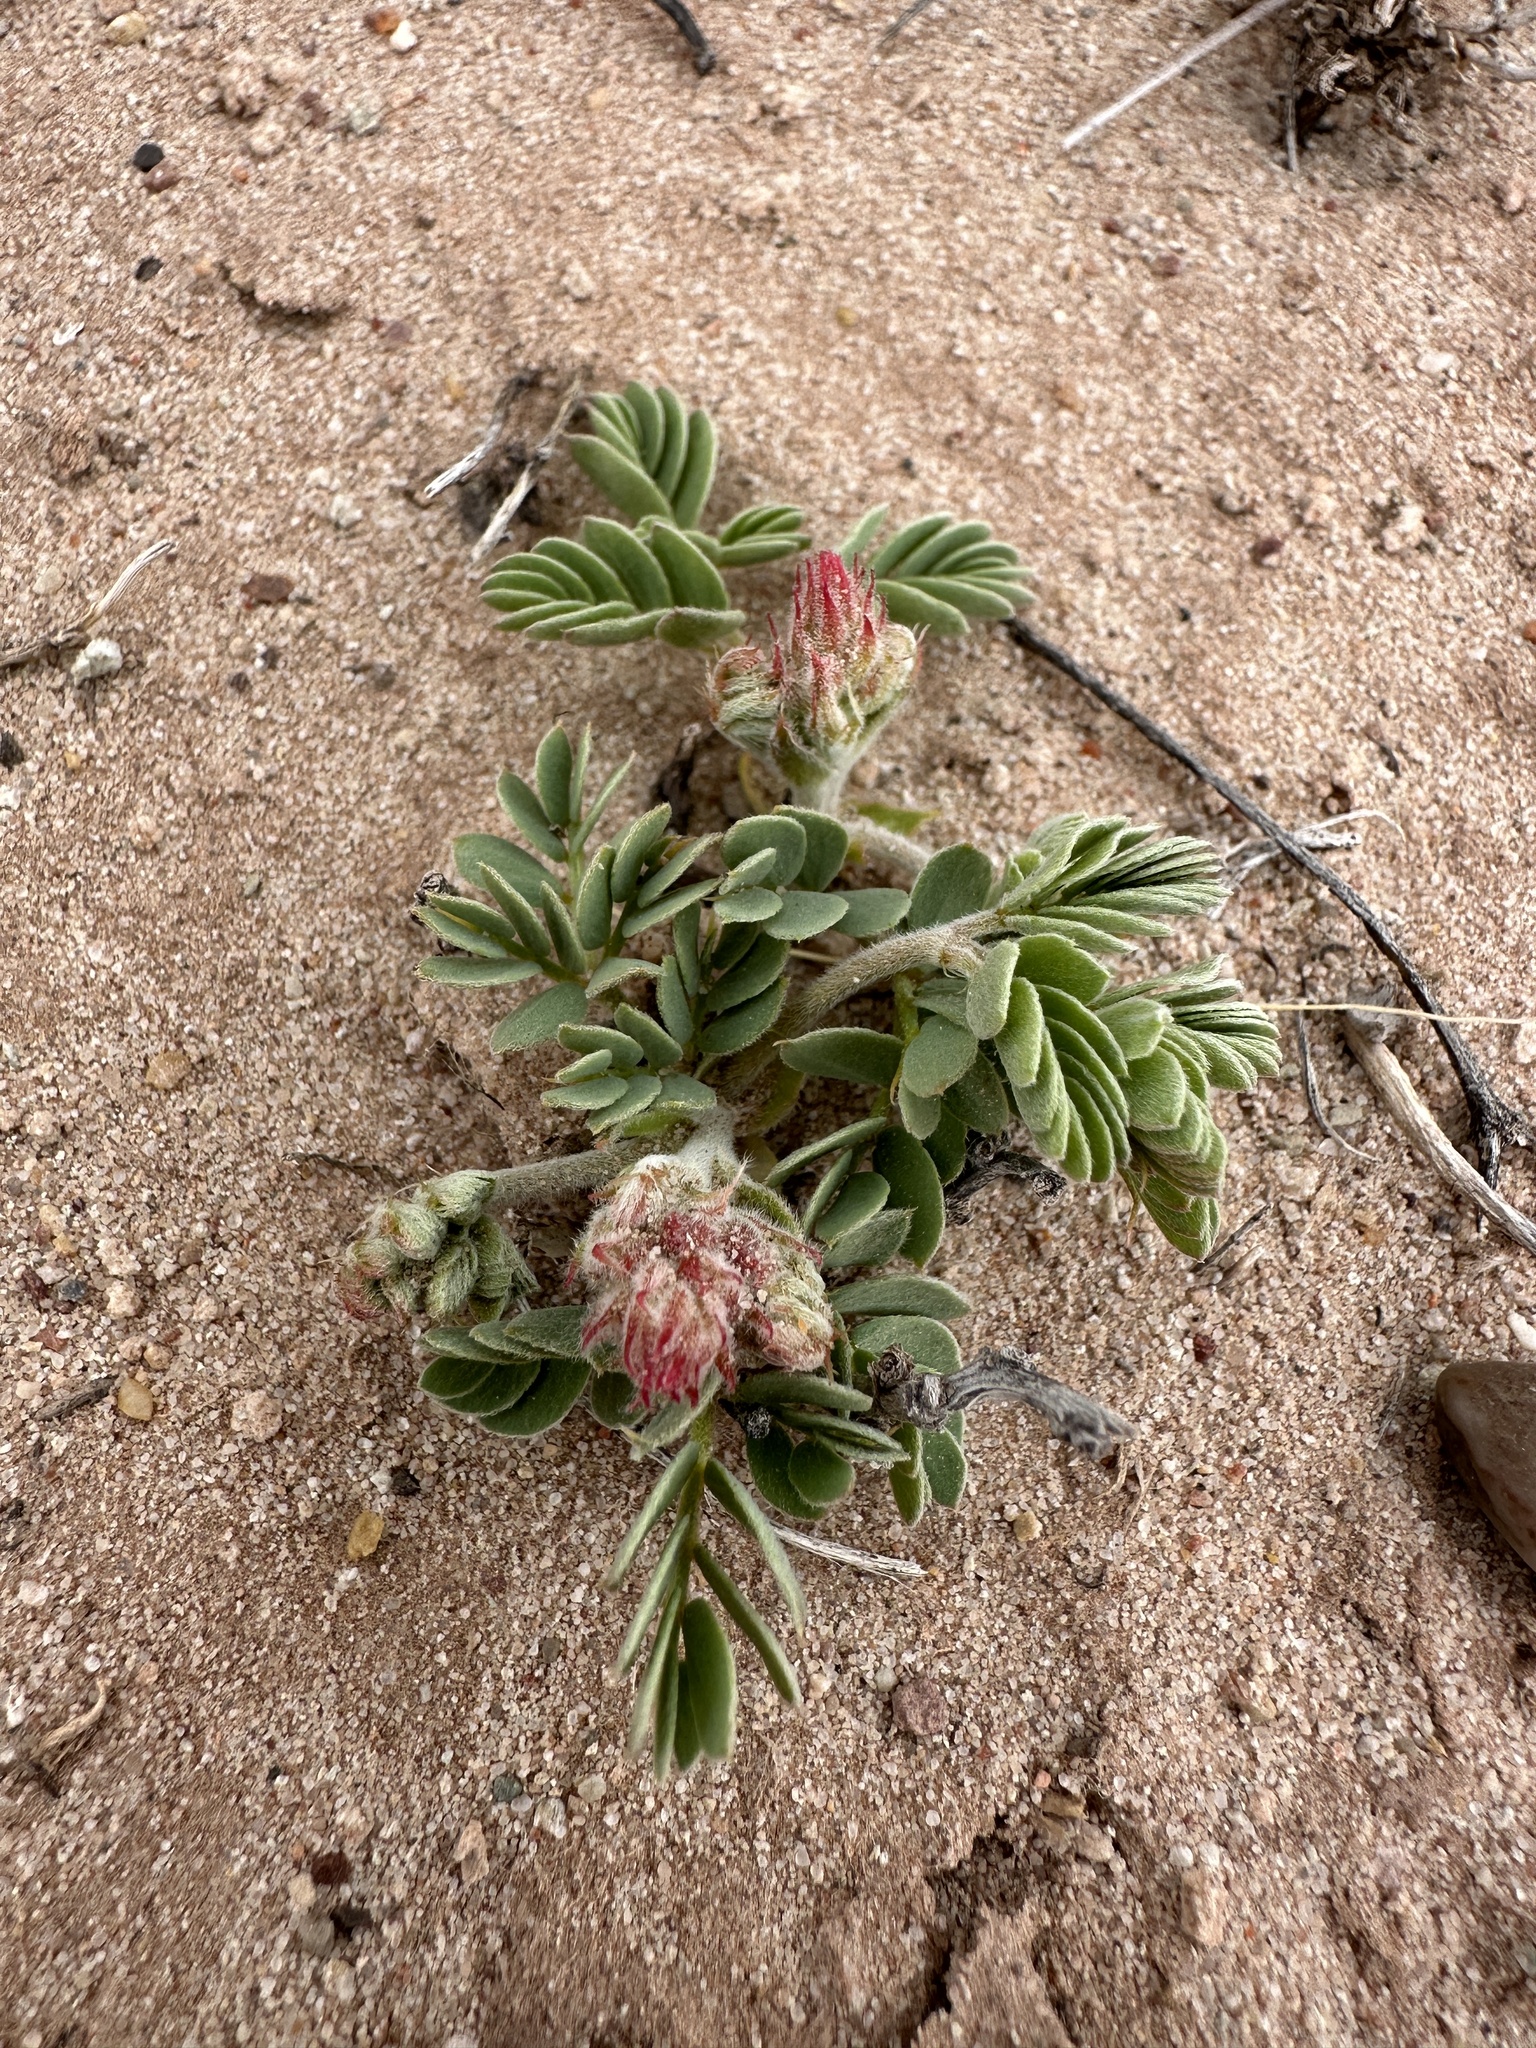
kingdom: Plantae
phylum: Tracheophyta
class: Magnoliopsida
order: Fabales
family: Fabaceae
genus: Hoffmannseggia
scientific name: Hoffmannseggia repens
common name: Creeping rush-pea
